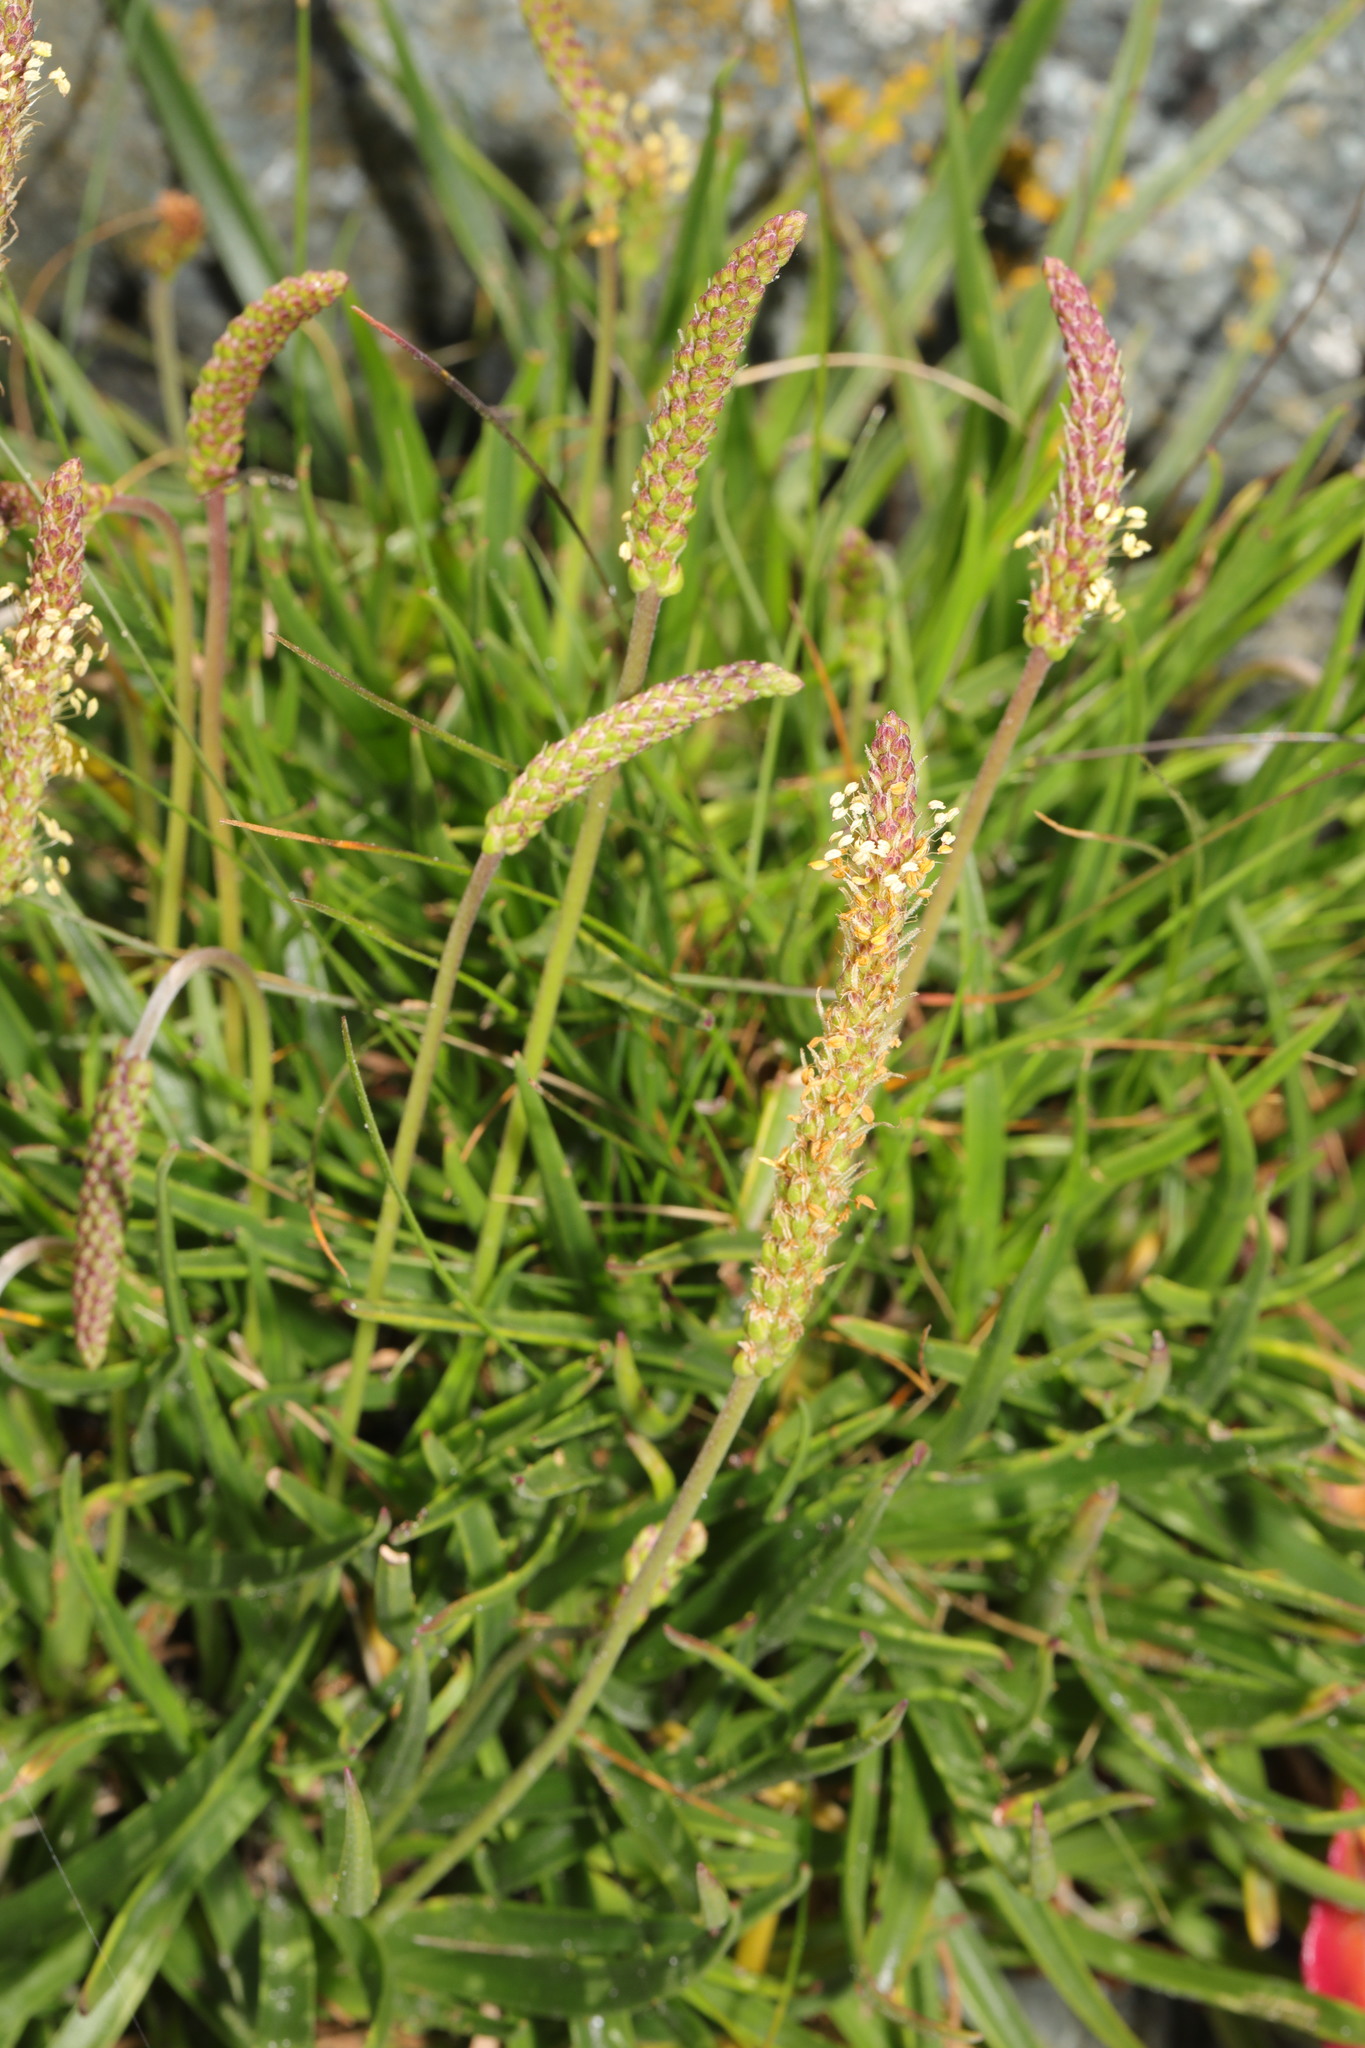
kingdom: Plantae
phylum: Tracheophyta
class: Magnoliopsida
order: Lamiales
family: Plantaginaceae
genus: Plantago
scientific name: Plantago maritima
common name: Sea plantain
